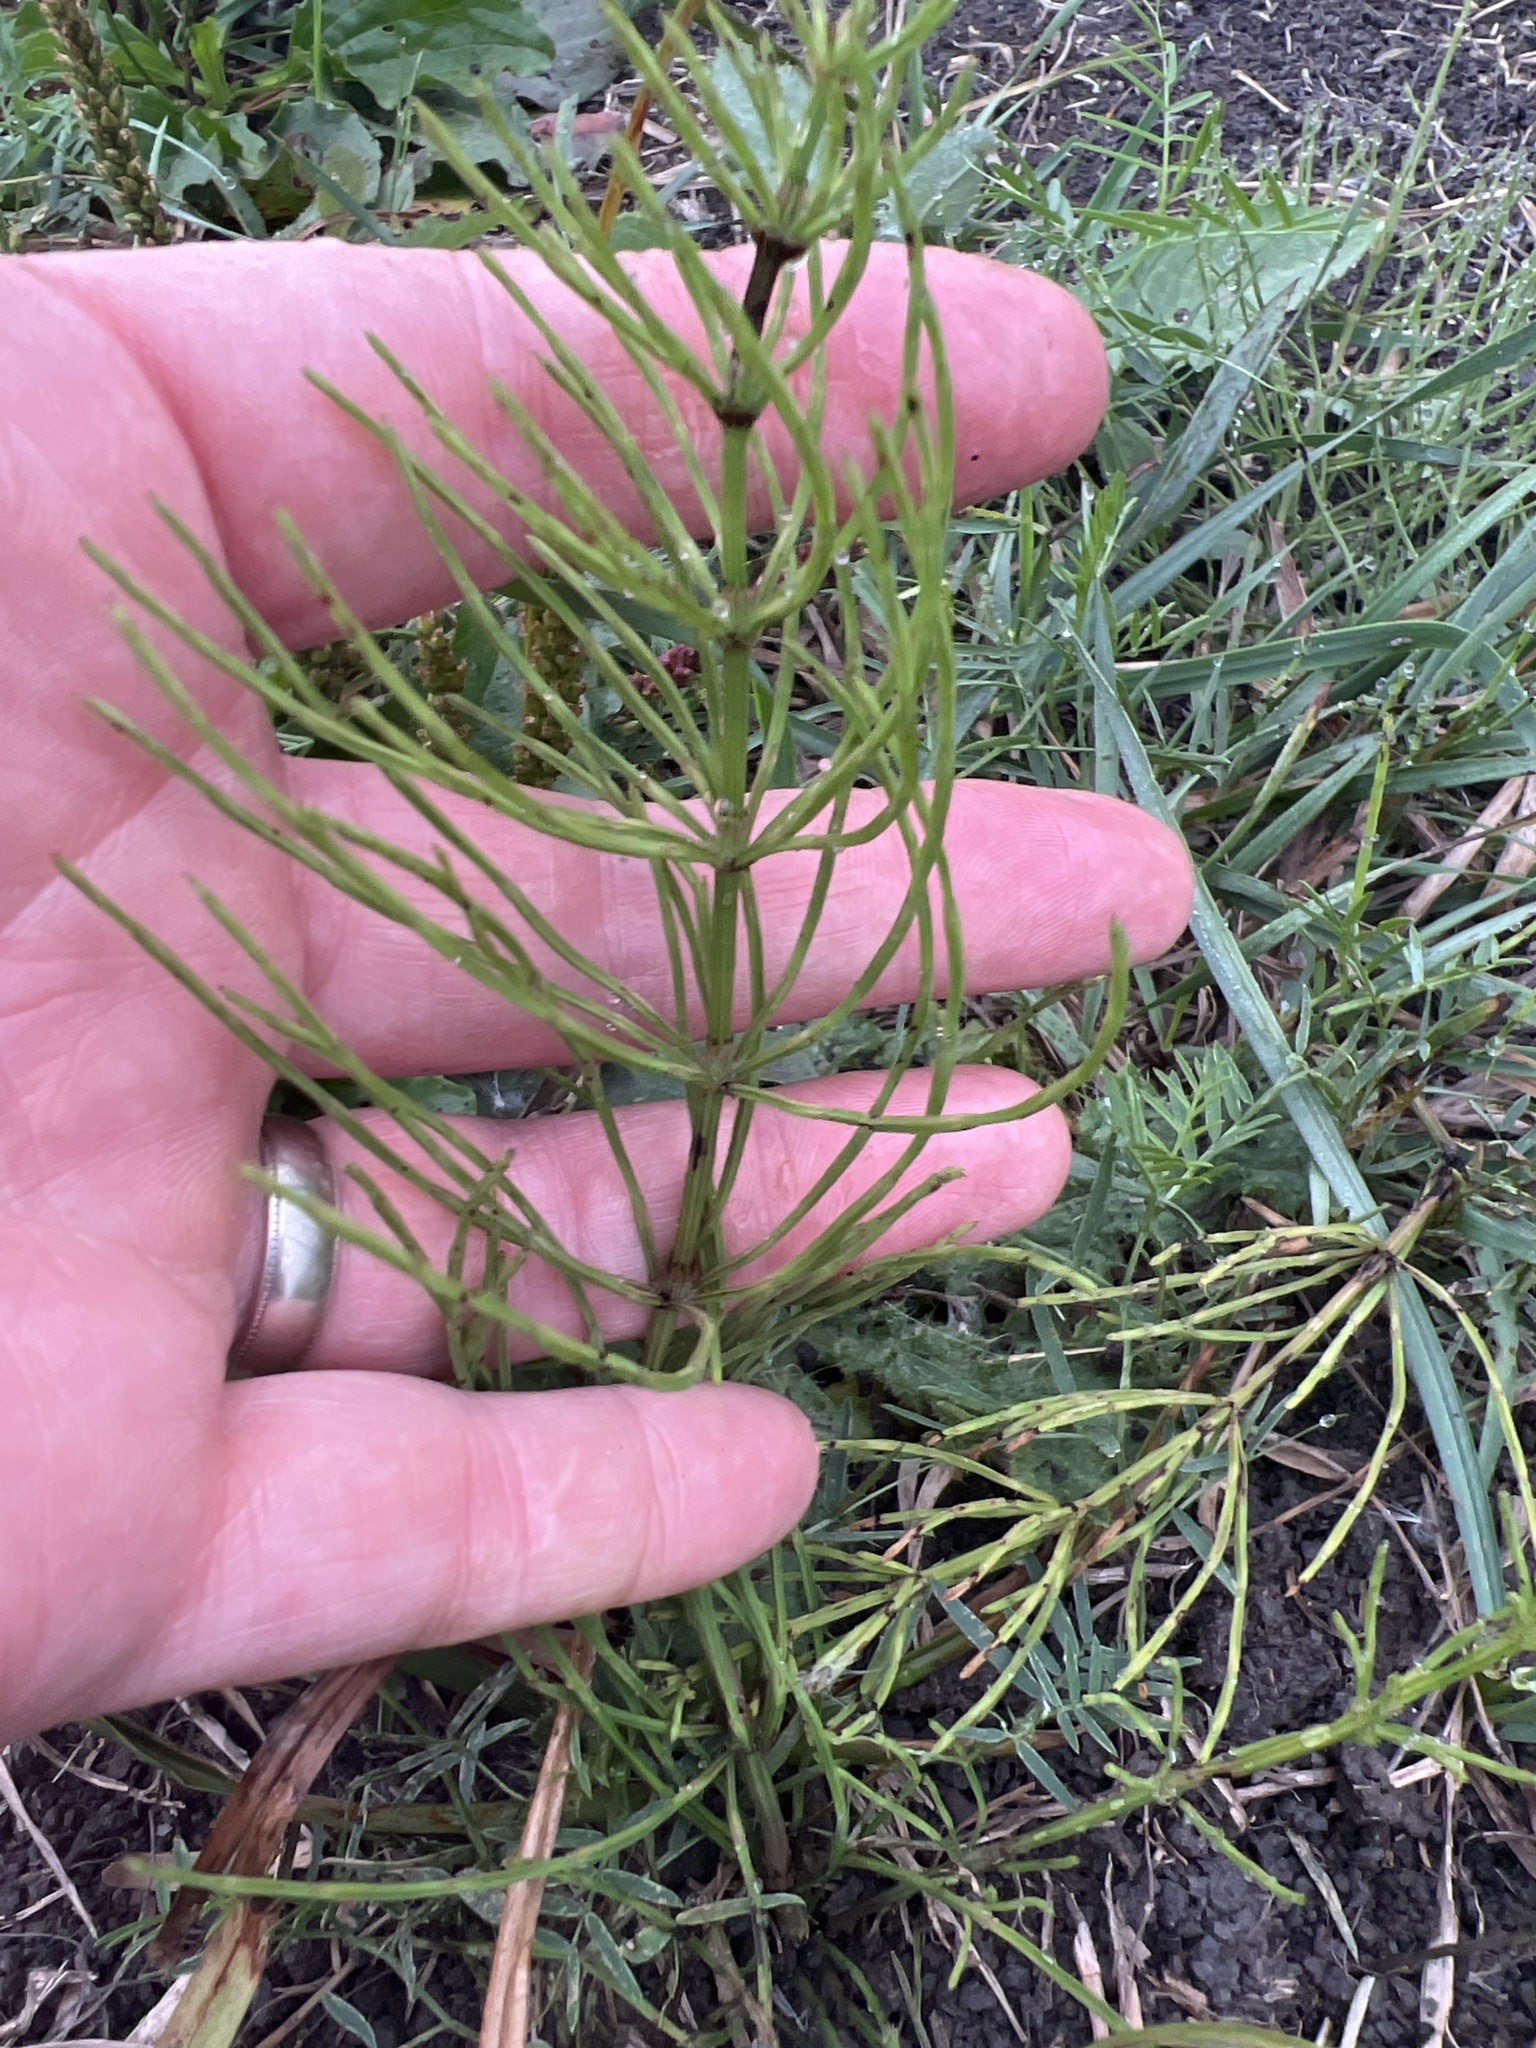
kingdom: Plantae
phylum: Tracheophyta
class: Polypodiopsida
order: Equisetales
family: Equisetaceae
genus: Equisetum
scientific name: Equisetum arvense
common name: Field horsetail
